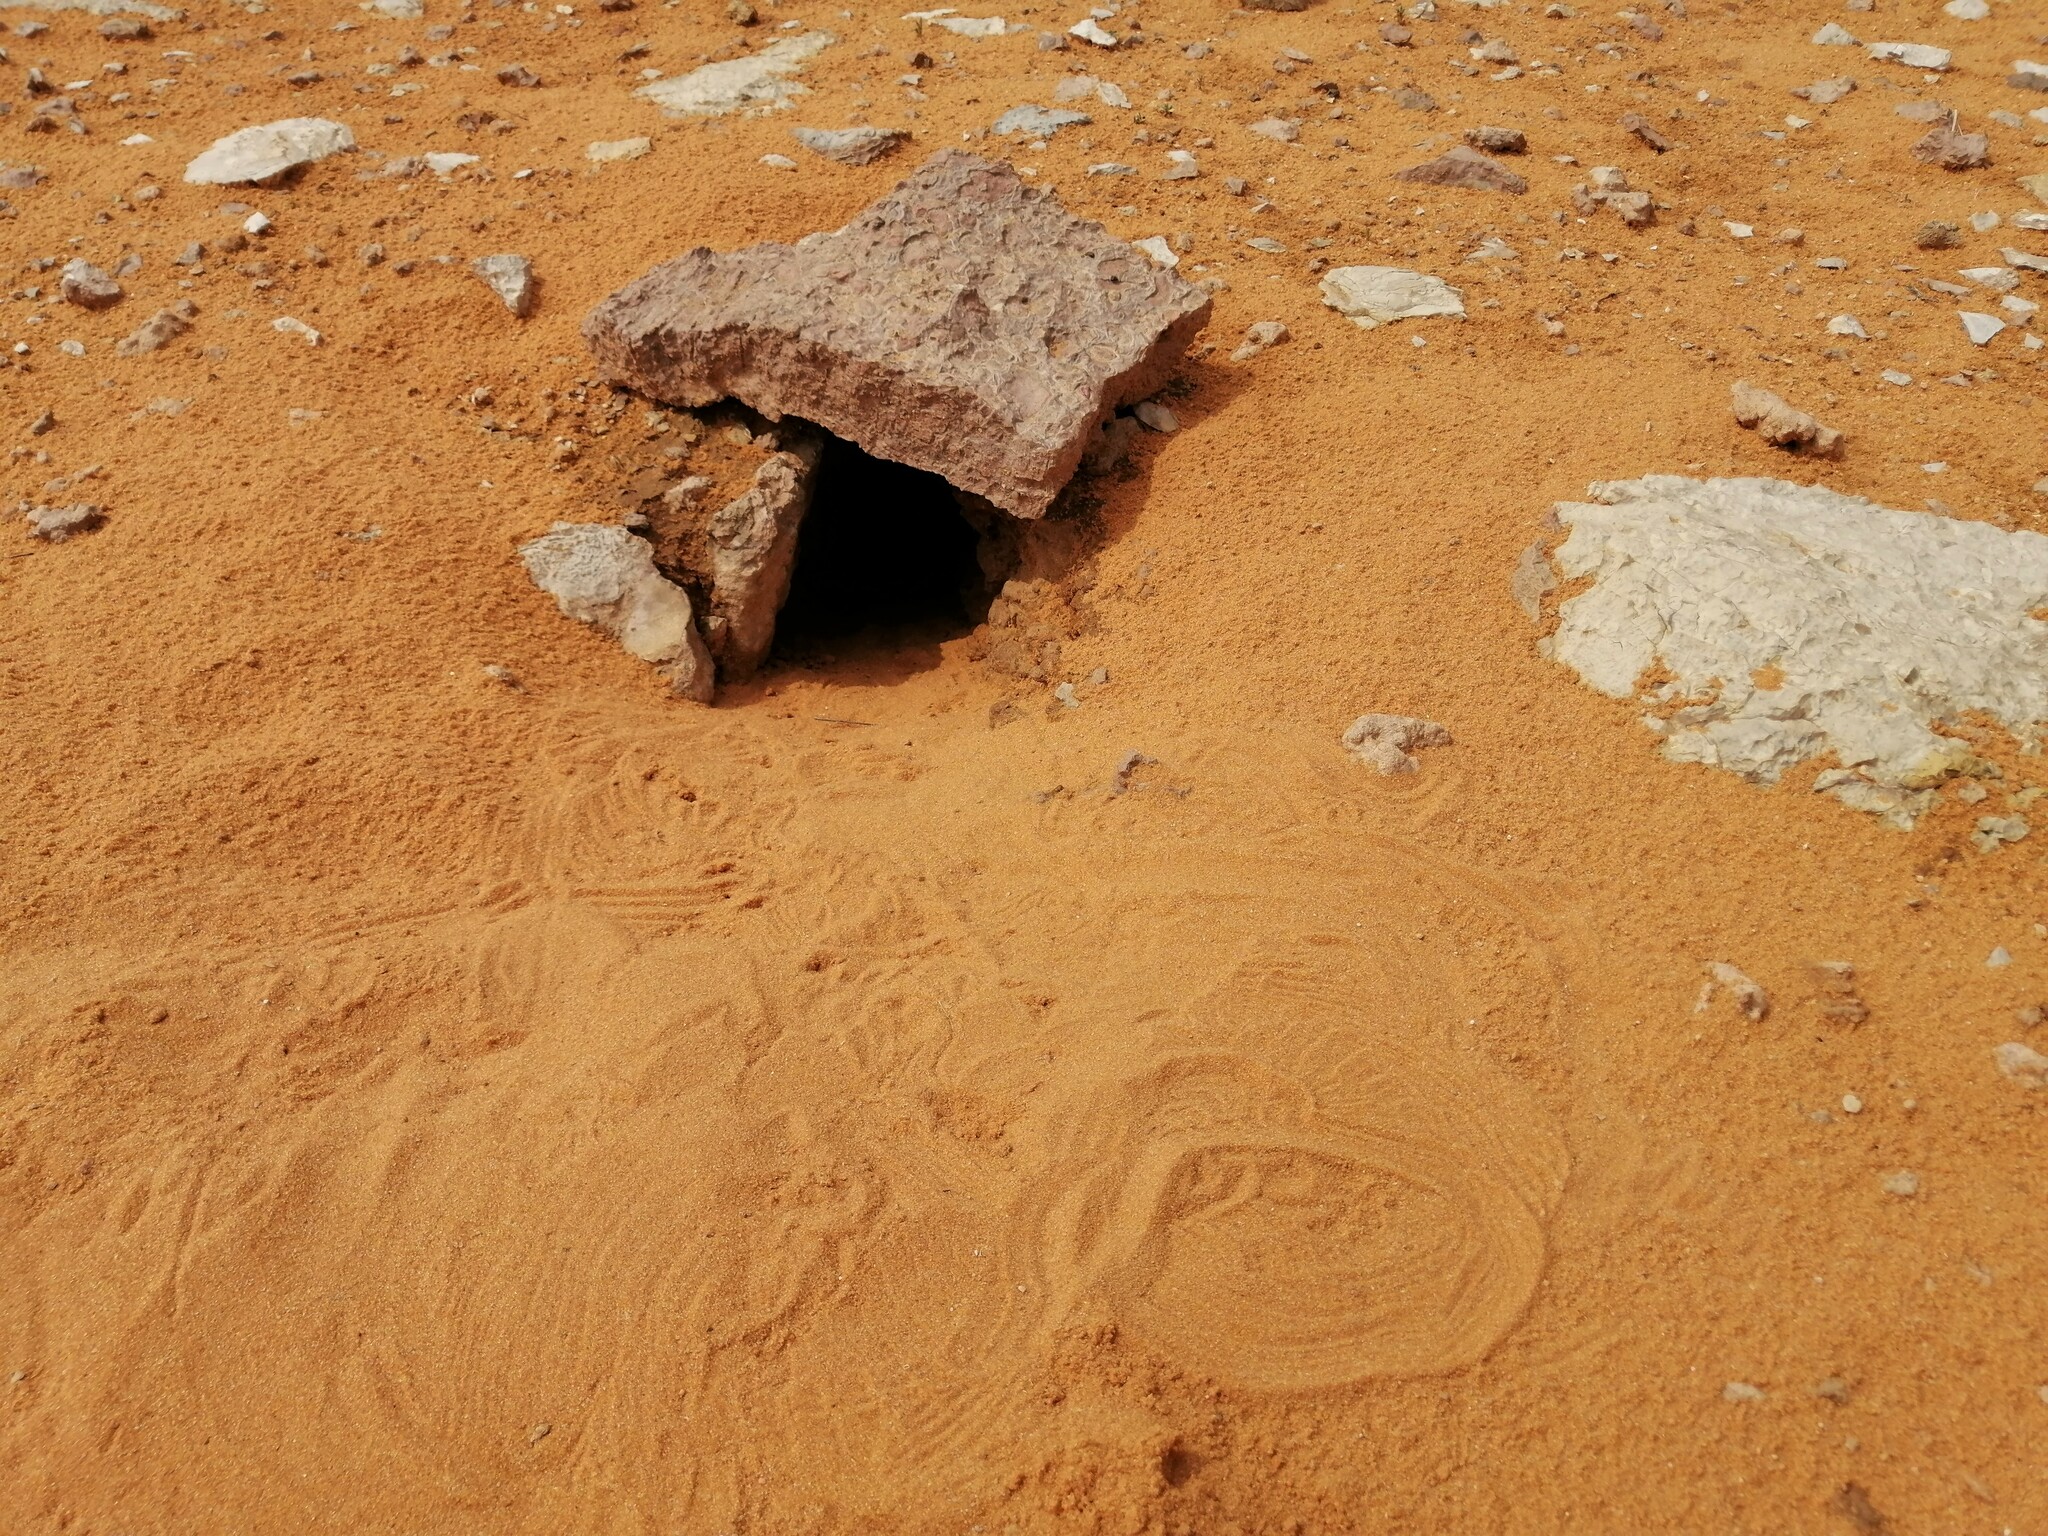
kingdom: Animalia
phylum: Chordata
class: Squamata
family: Agamidae
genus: Uromastyx
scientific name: Uromastyx aegyptia
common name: Egyptian mastigure
